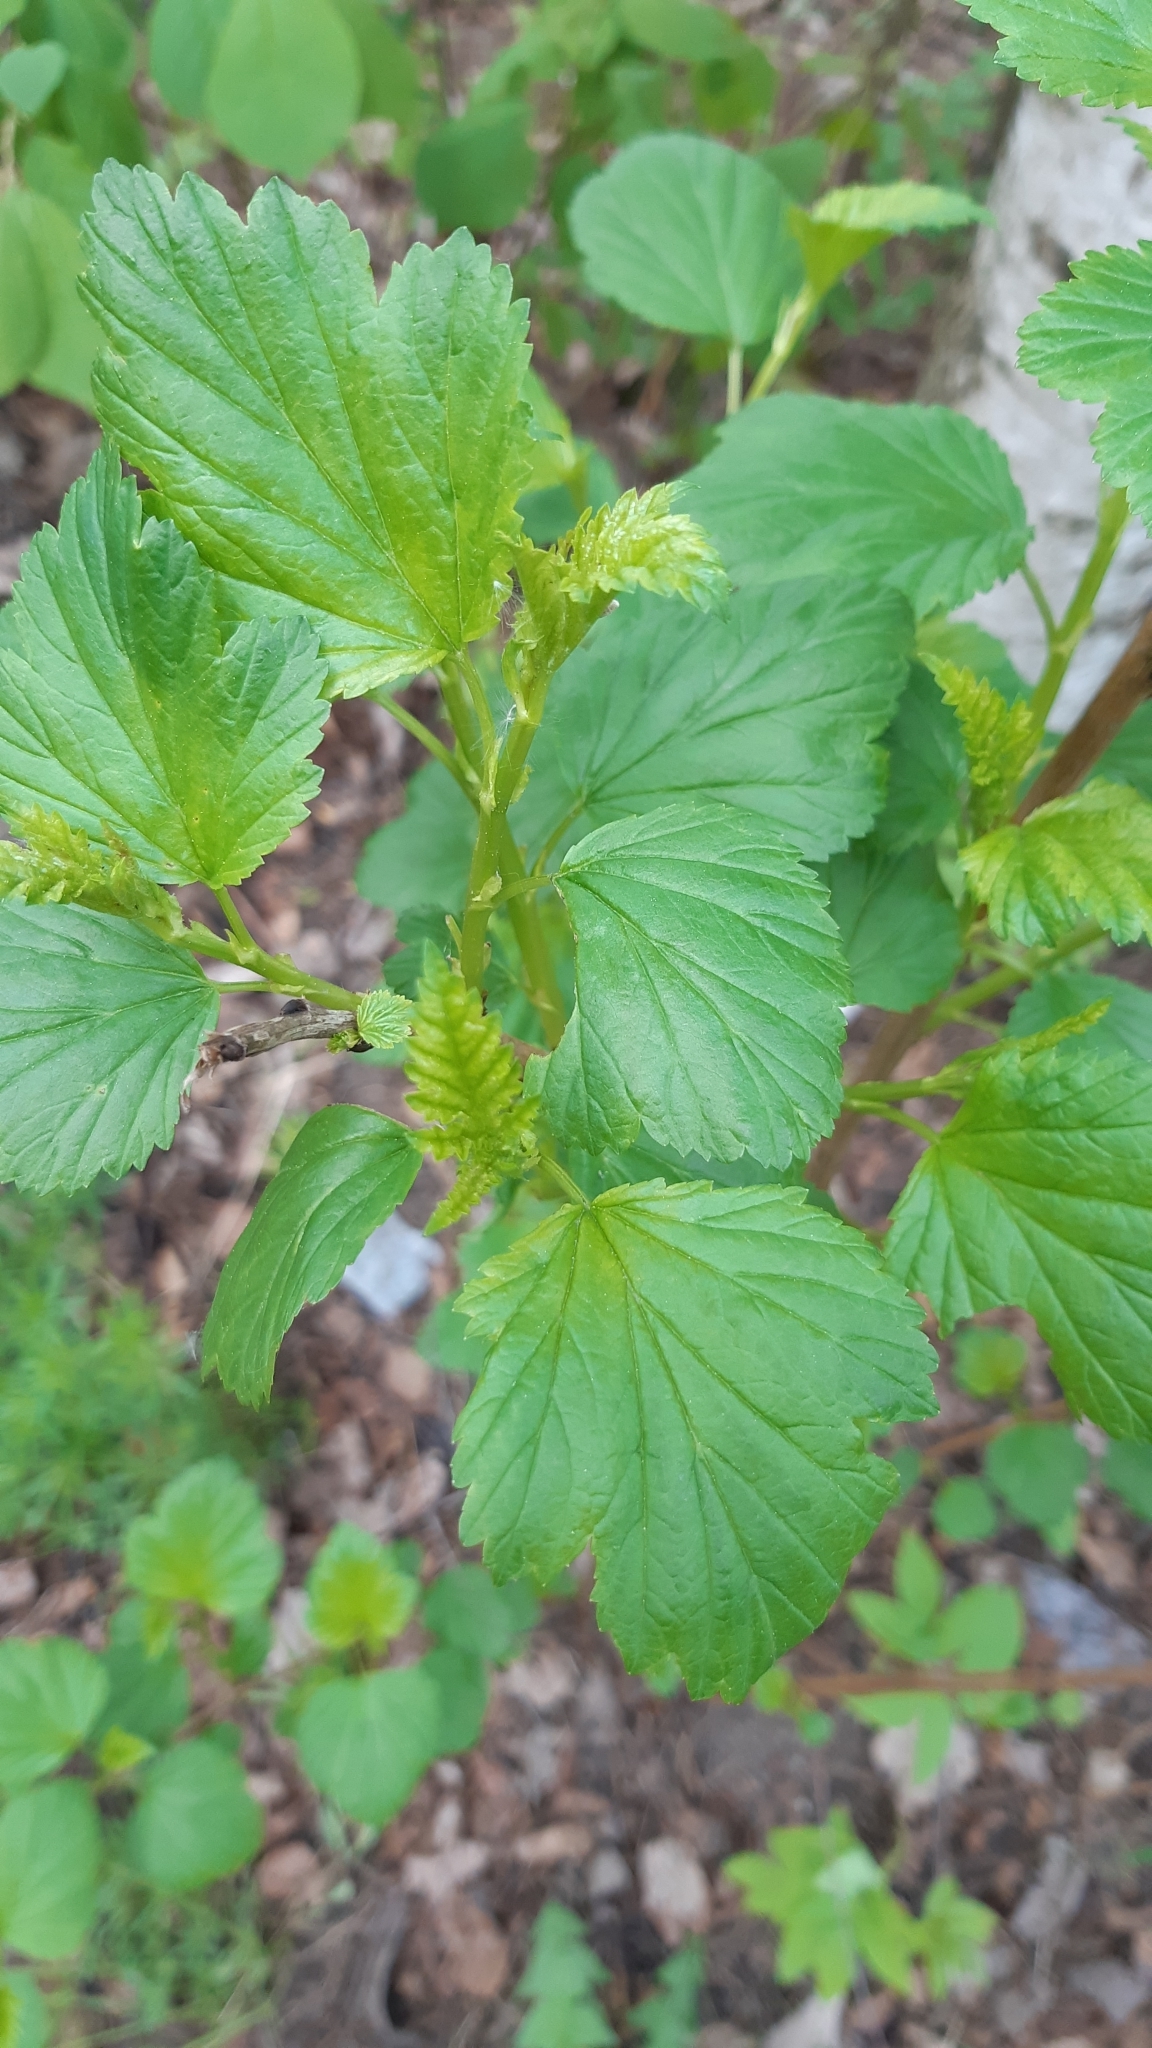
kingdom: Plantae
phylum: Tracheophyta
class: Magnoliopsida
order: Rosales
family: Rosaceae
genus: Physocarpus
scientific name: Physocarpus opulifolius
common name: Ninebark
